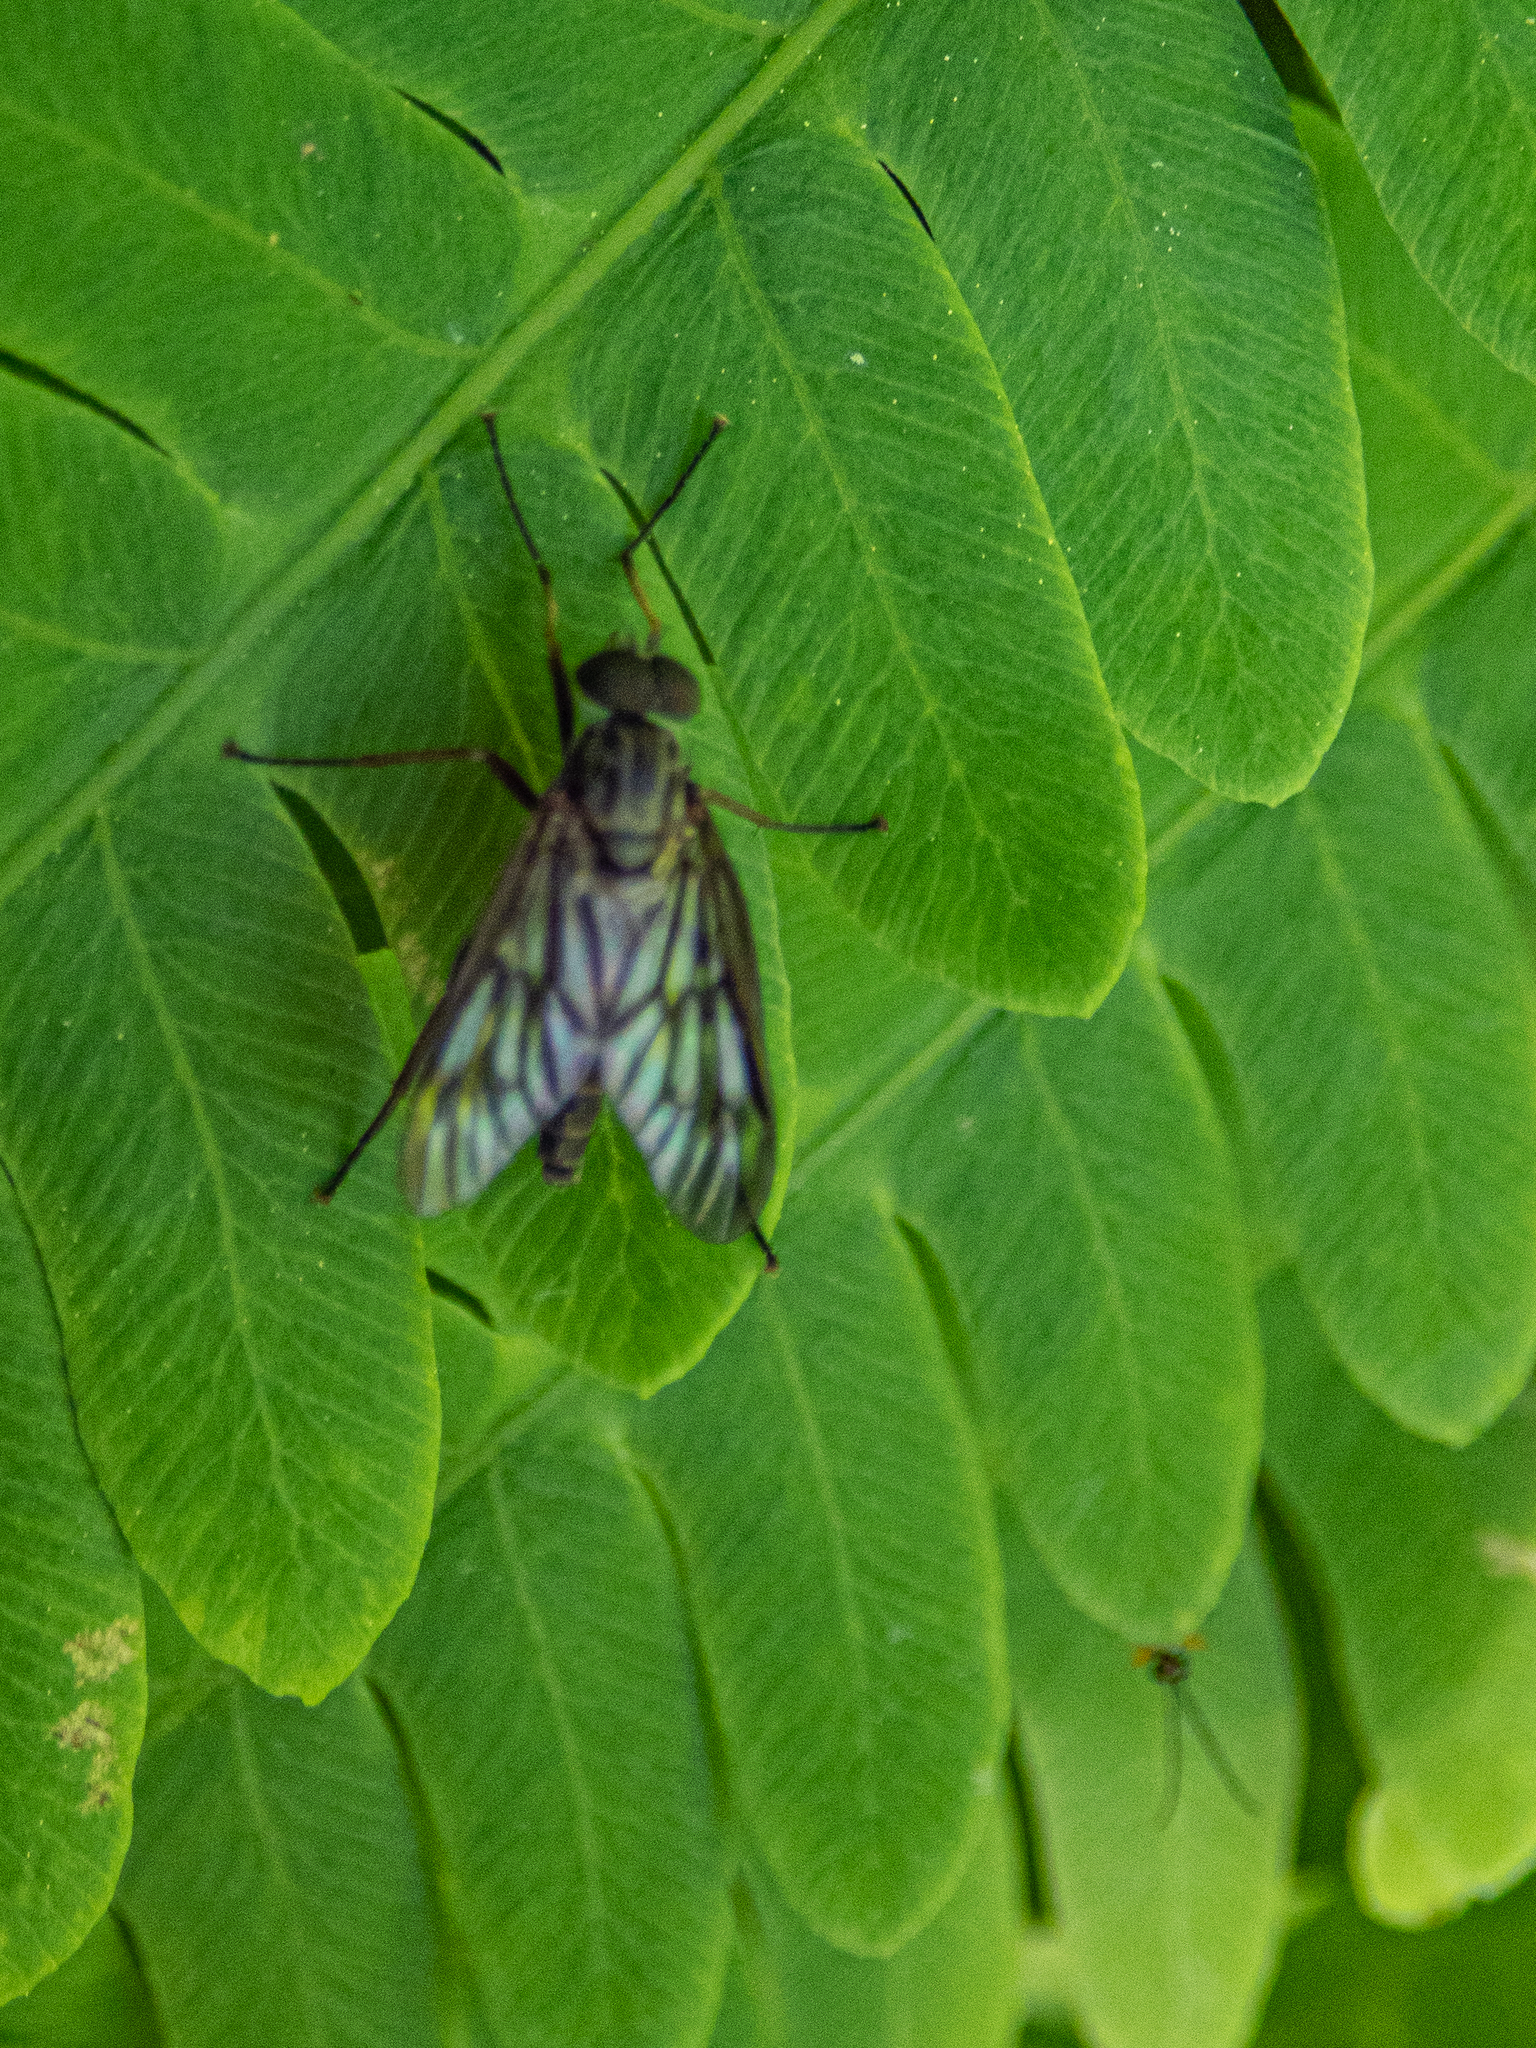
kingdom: Animalia
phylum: Arthropoda
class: Insecta
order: Diptera
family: Rhagionidae
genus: Rhagio
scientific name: Rhagio mystaceus
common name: Common snipe fly
